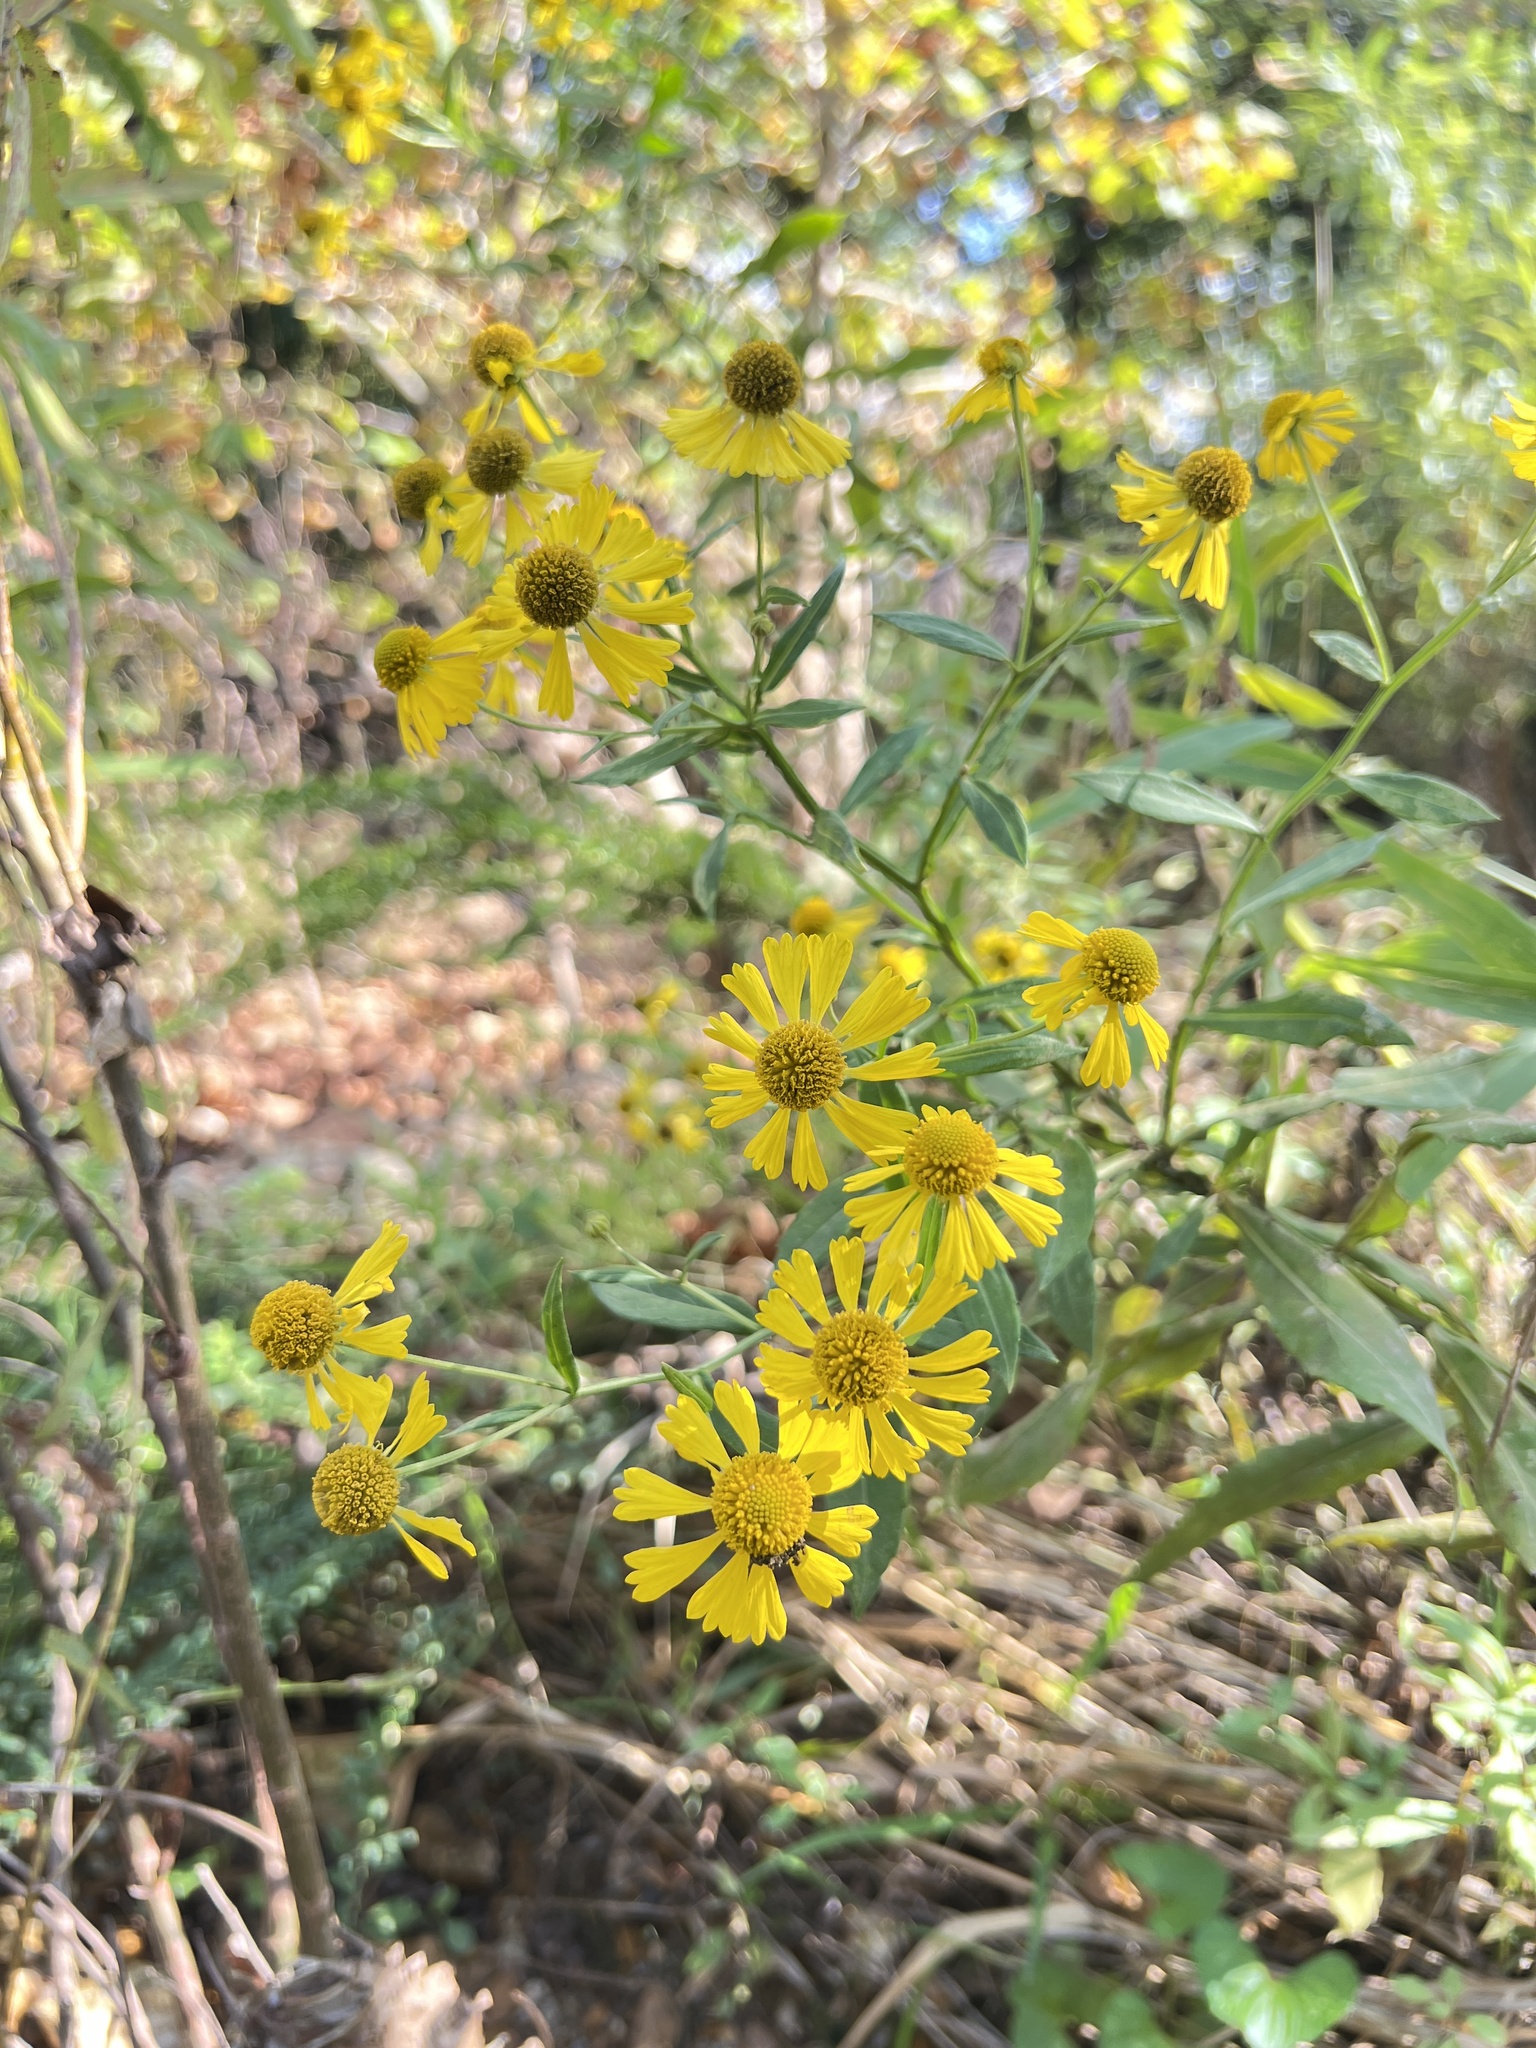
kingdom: Plantae
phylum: Tracheophyta
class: Magnoliopsida
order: Asterales
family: Asteraceae
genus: Helenium
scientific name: Helenium autumnale
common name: Sneezeweed
